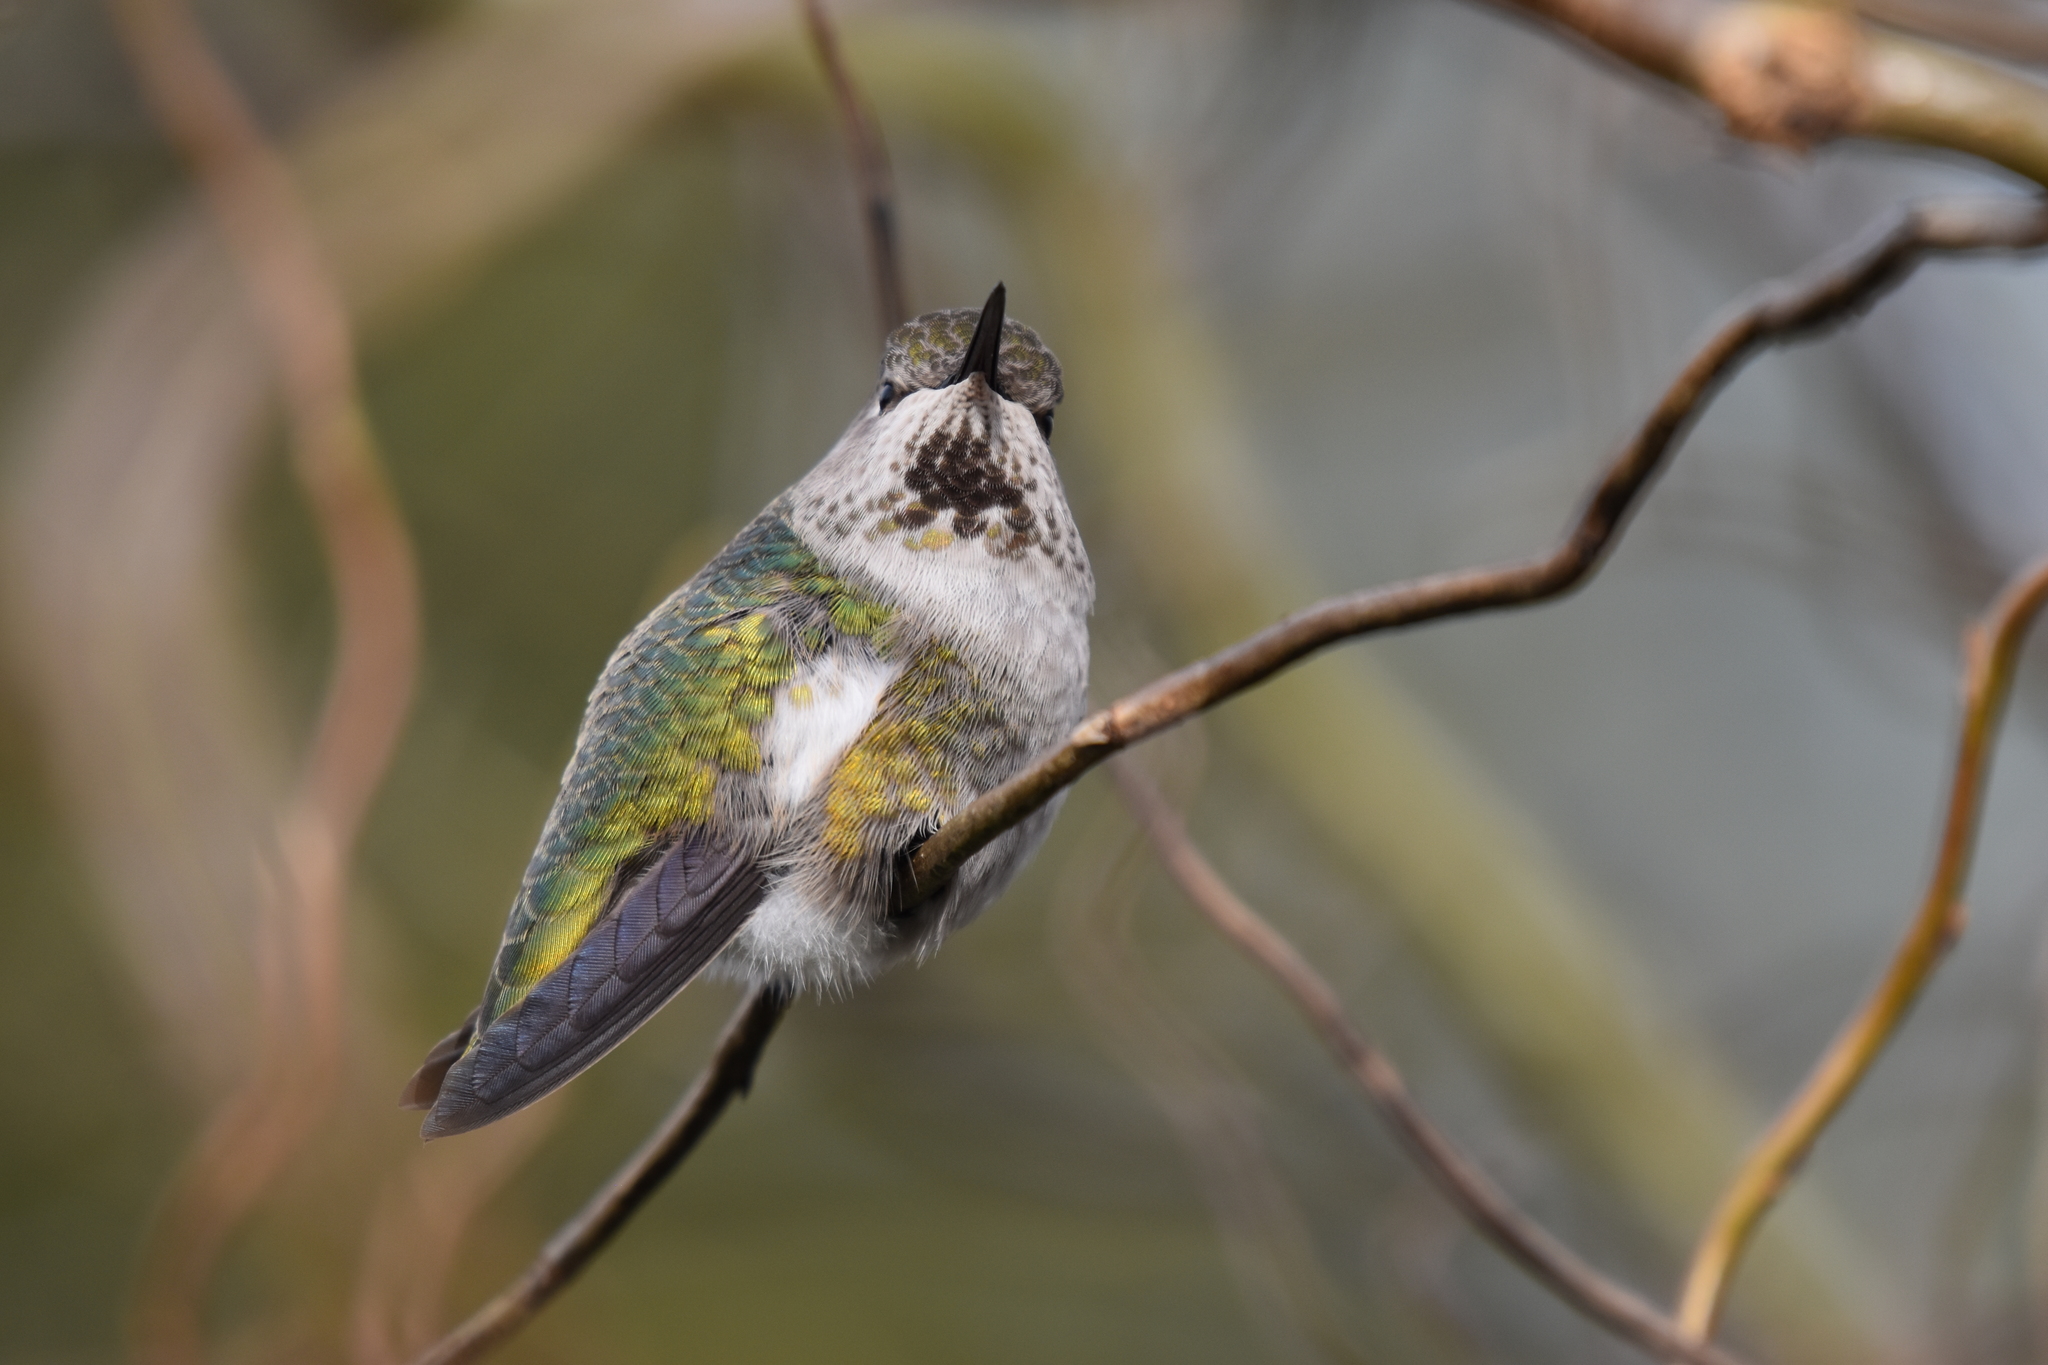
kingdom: Animalia
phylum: Chordata
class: Aves
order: Apodiformes
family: Trochilidae
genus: Calypte
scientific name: Calypte anna
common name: Anna's hummingbird
